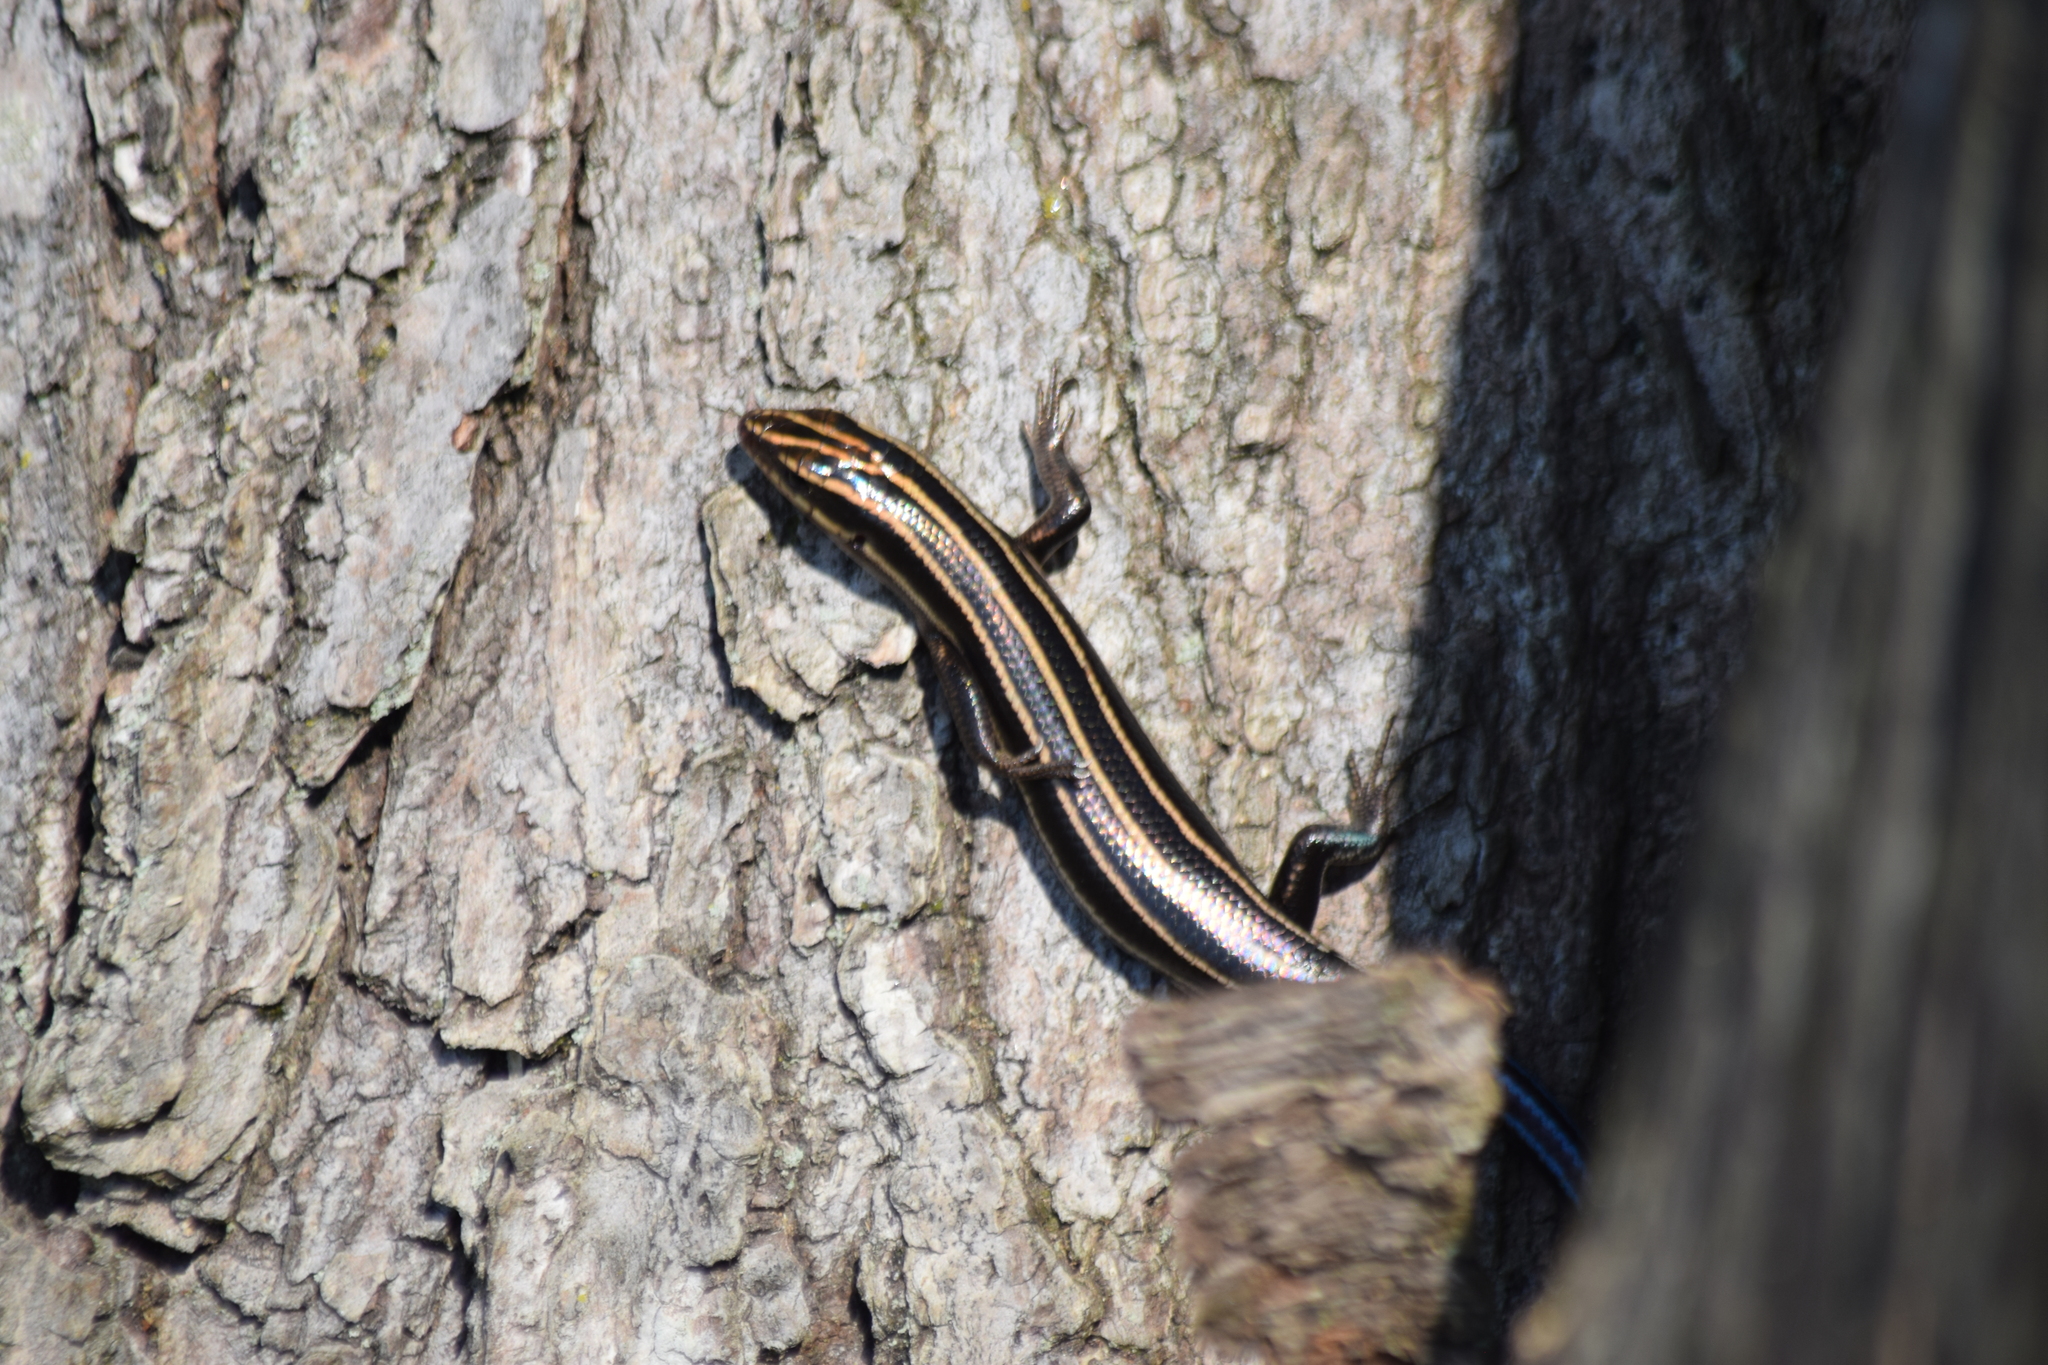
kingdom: Animalia
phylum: Chordata
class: Squamata
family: Scincidae
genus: Plestiodon
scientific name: Plestiodon fasciatus
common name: Five-lined skink
